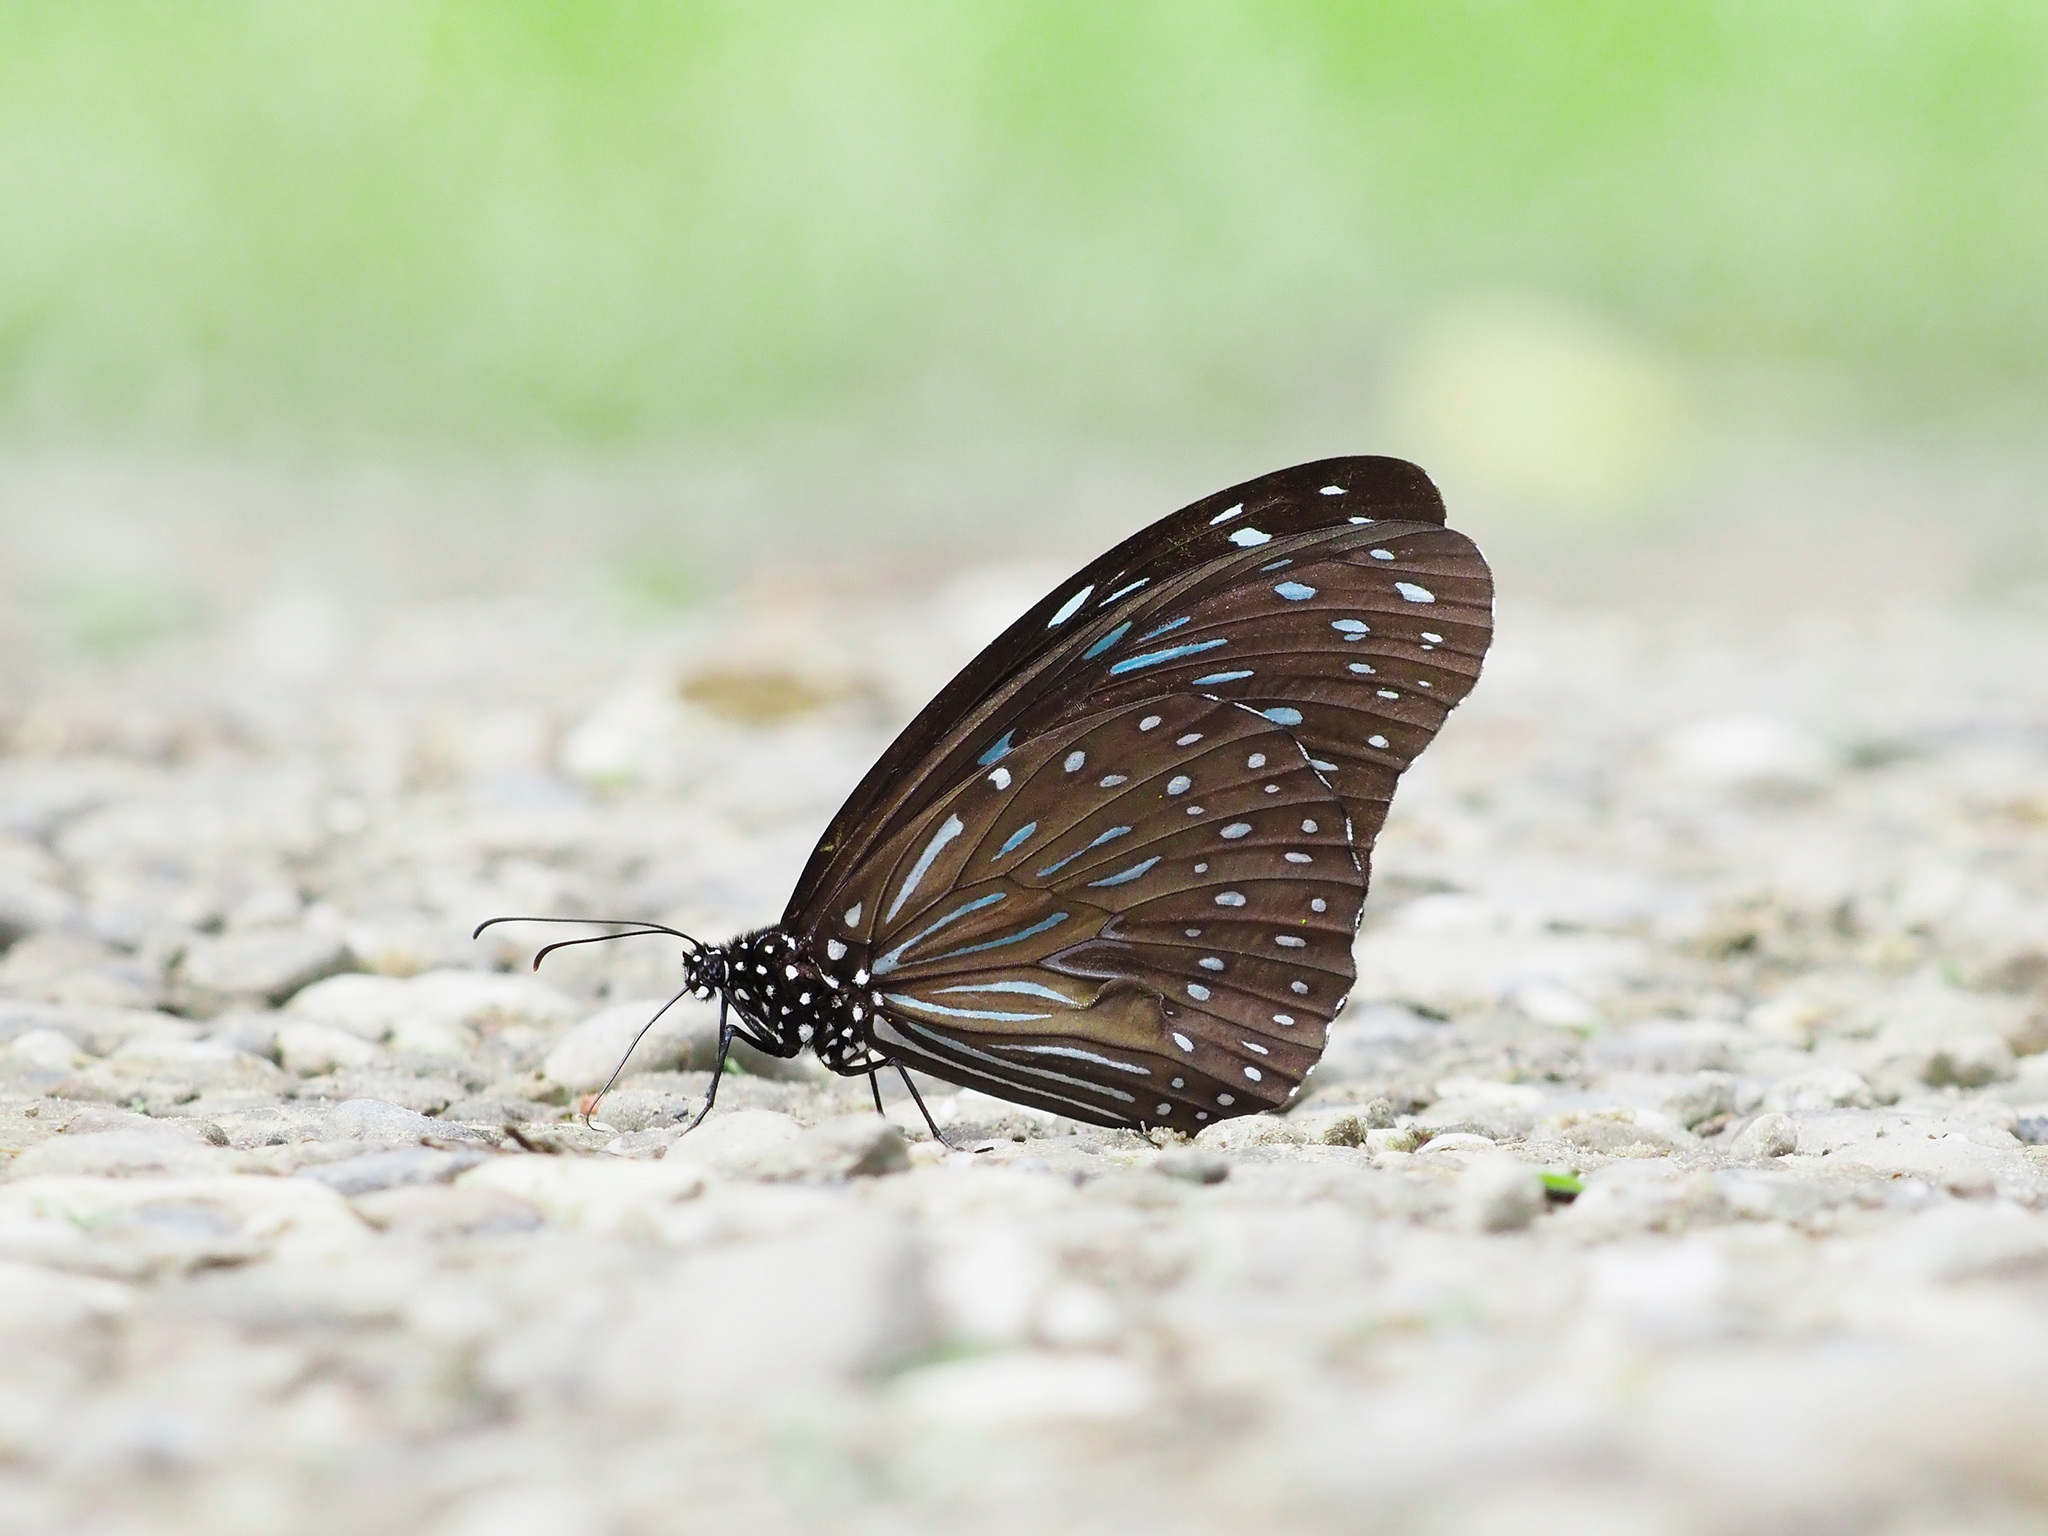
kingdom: Animalia
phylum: Arthropoda
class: Insecta
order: Lepidoptera
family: Nymphalidae
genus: Tirumala
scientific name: Tirumala septentrionis
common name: Dark blue tiger butterfly
